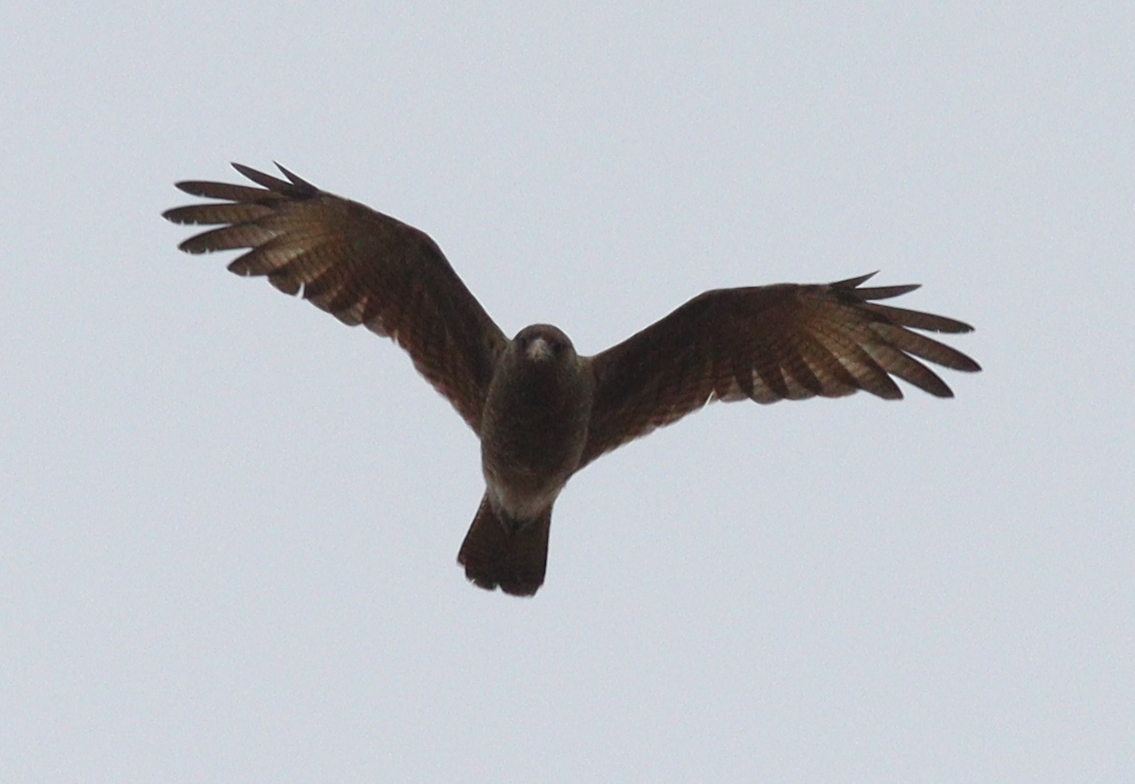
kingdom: Animalia
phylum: Chordata
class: Aves
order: Falconiformes
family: Falconidae
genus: Daptrius
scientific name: Daptrius
